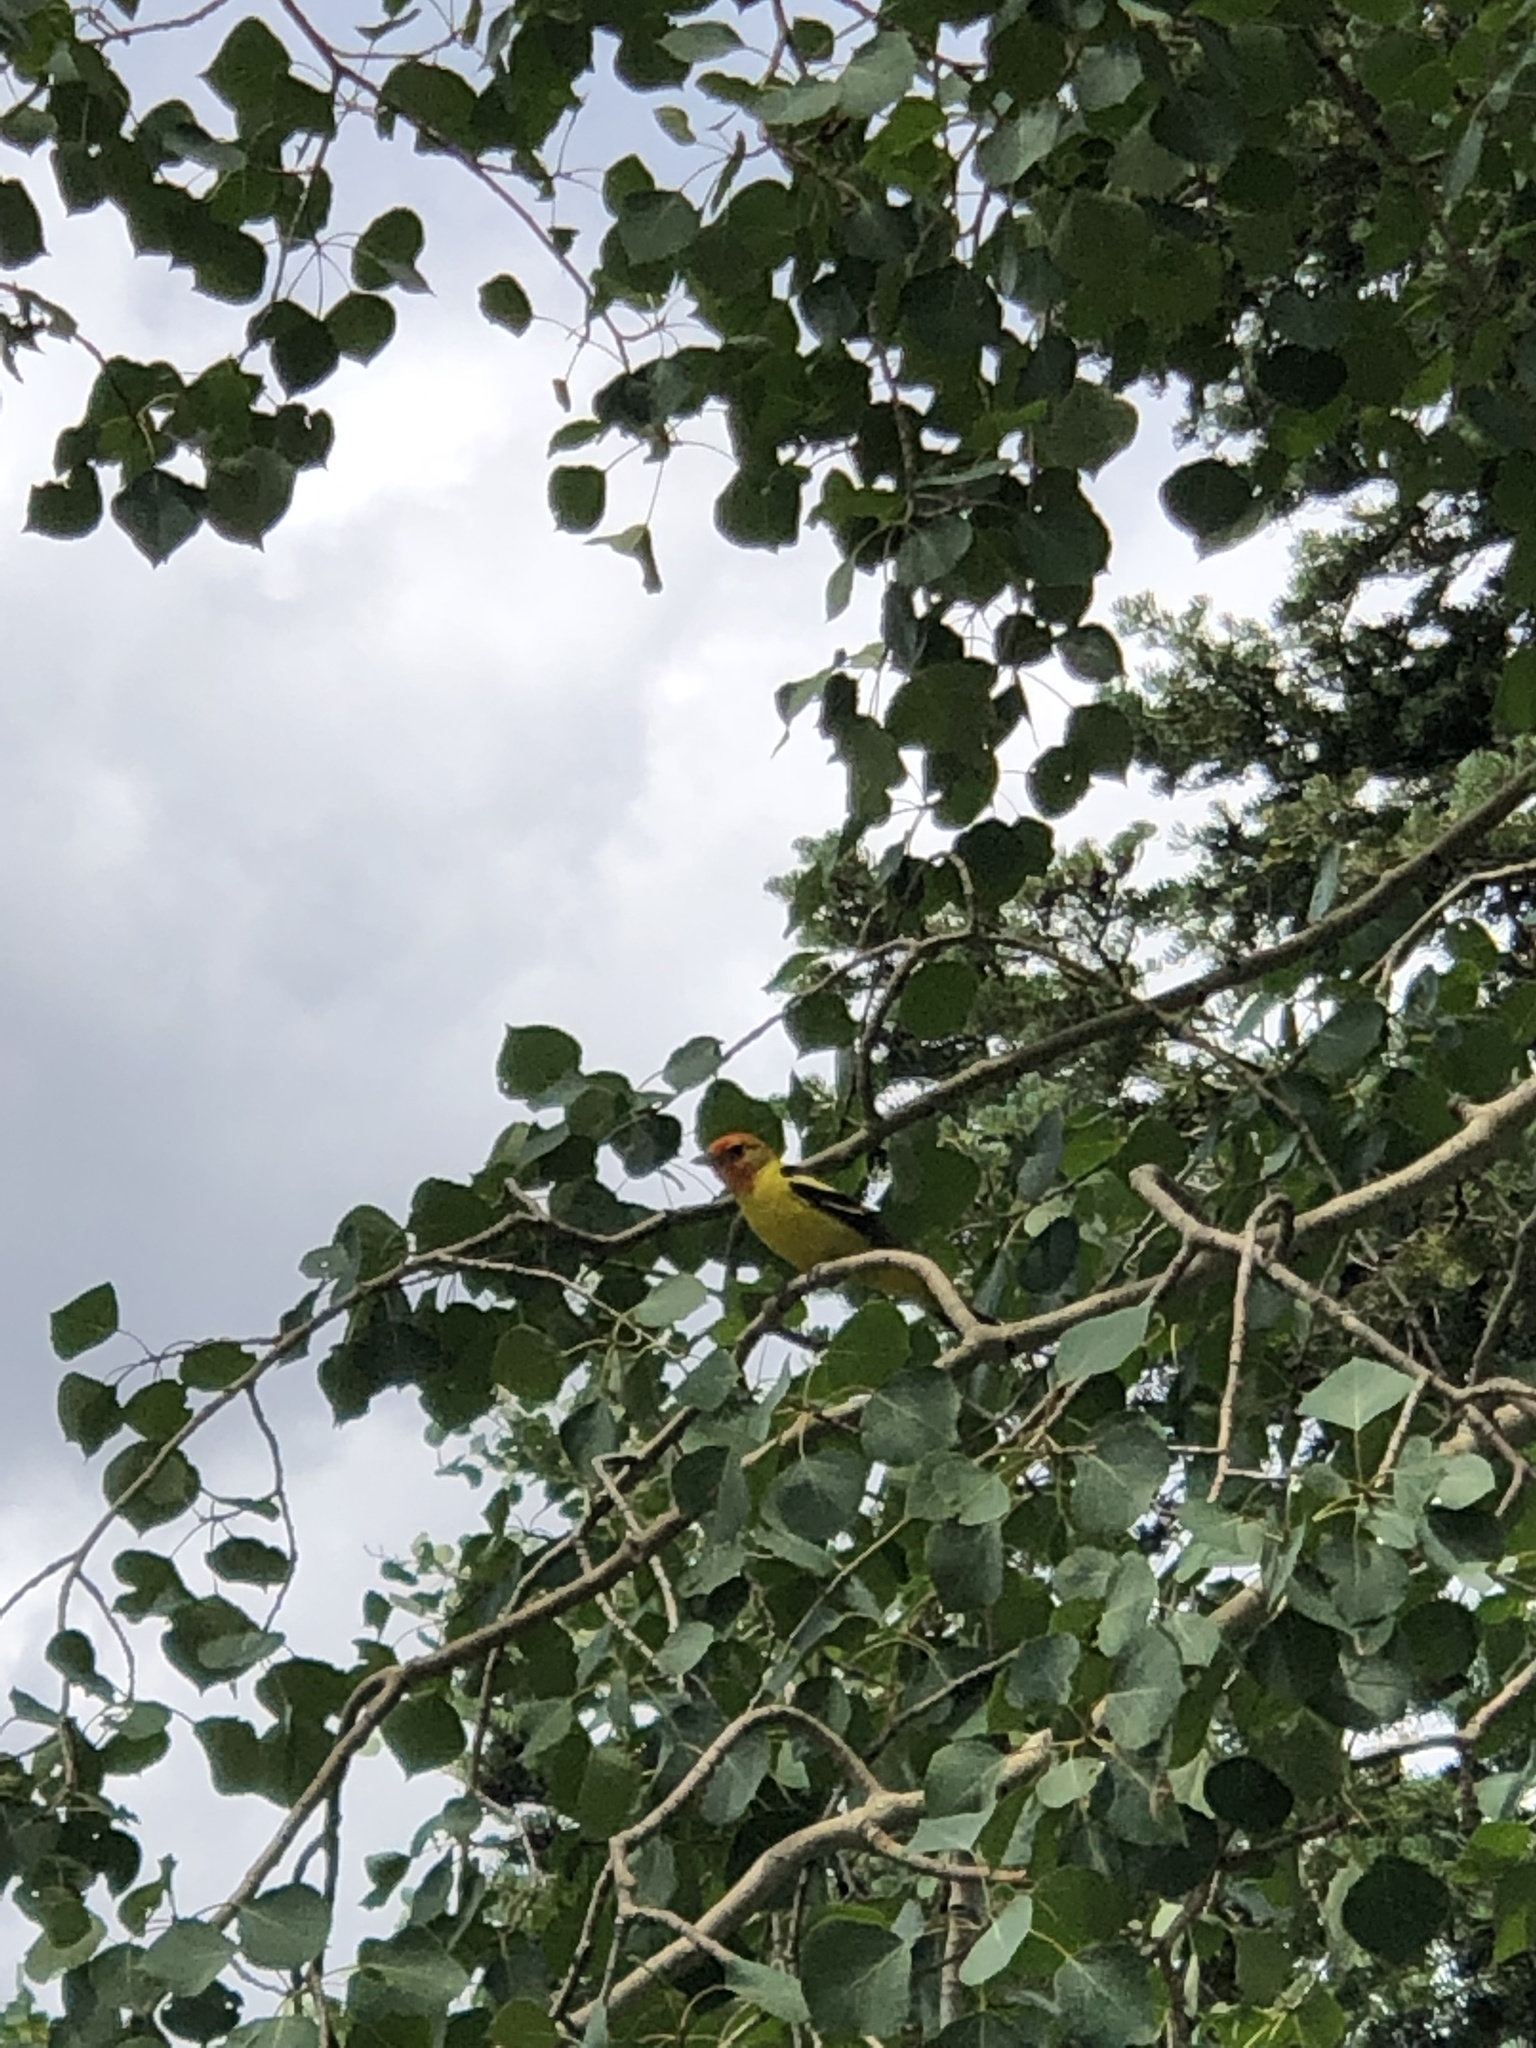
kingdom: Animalia
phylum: Chordata
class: Aves
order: Passeriformes
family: Cardinalidae
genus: Piranga
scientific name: Piranga ludoviciana
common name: Western tanager
